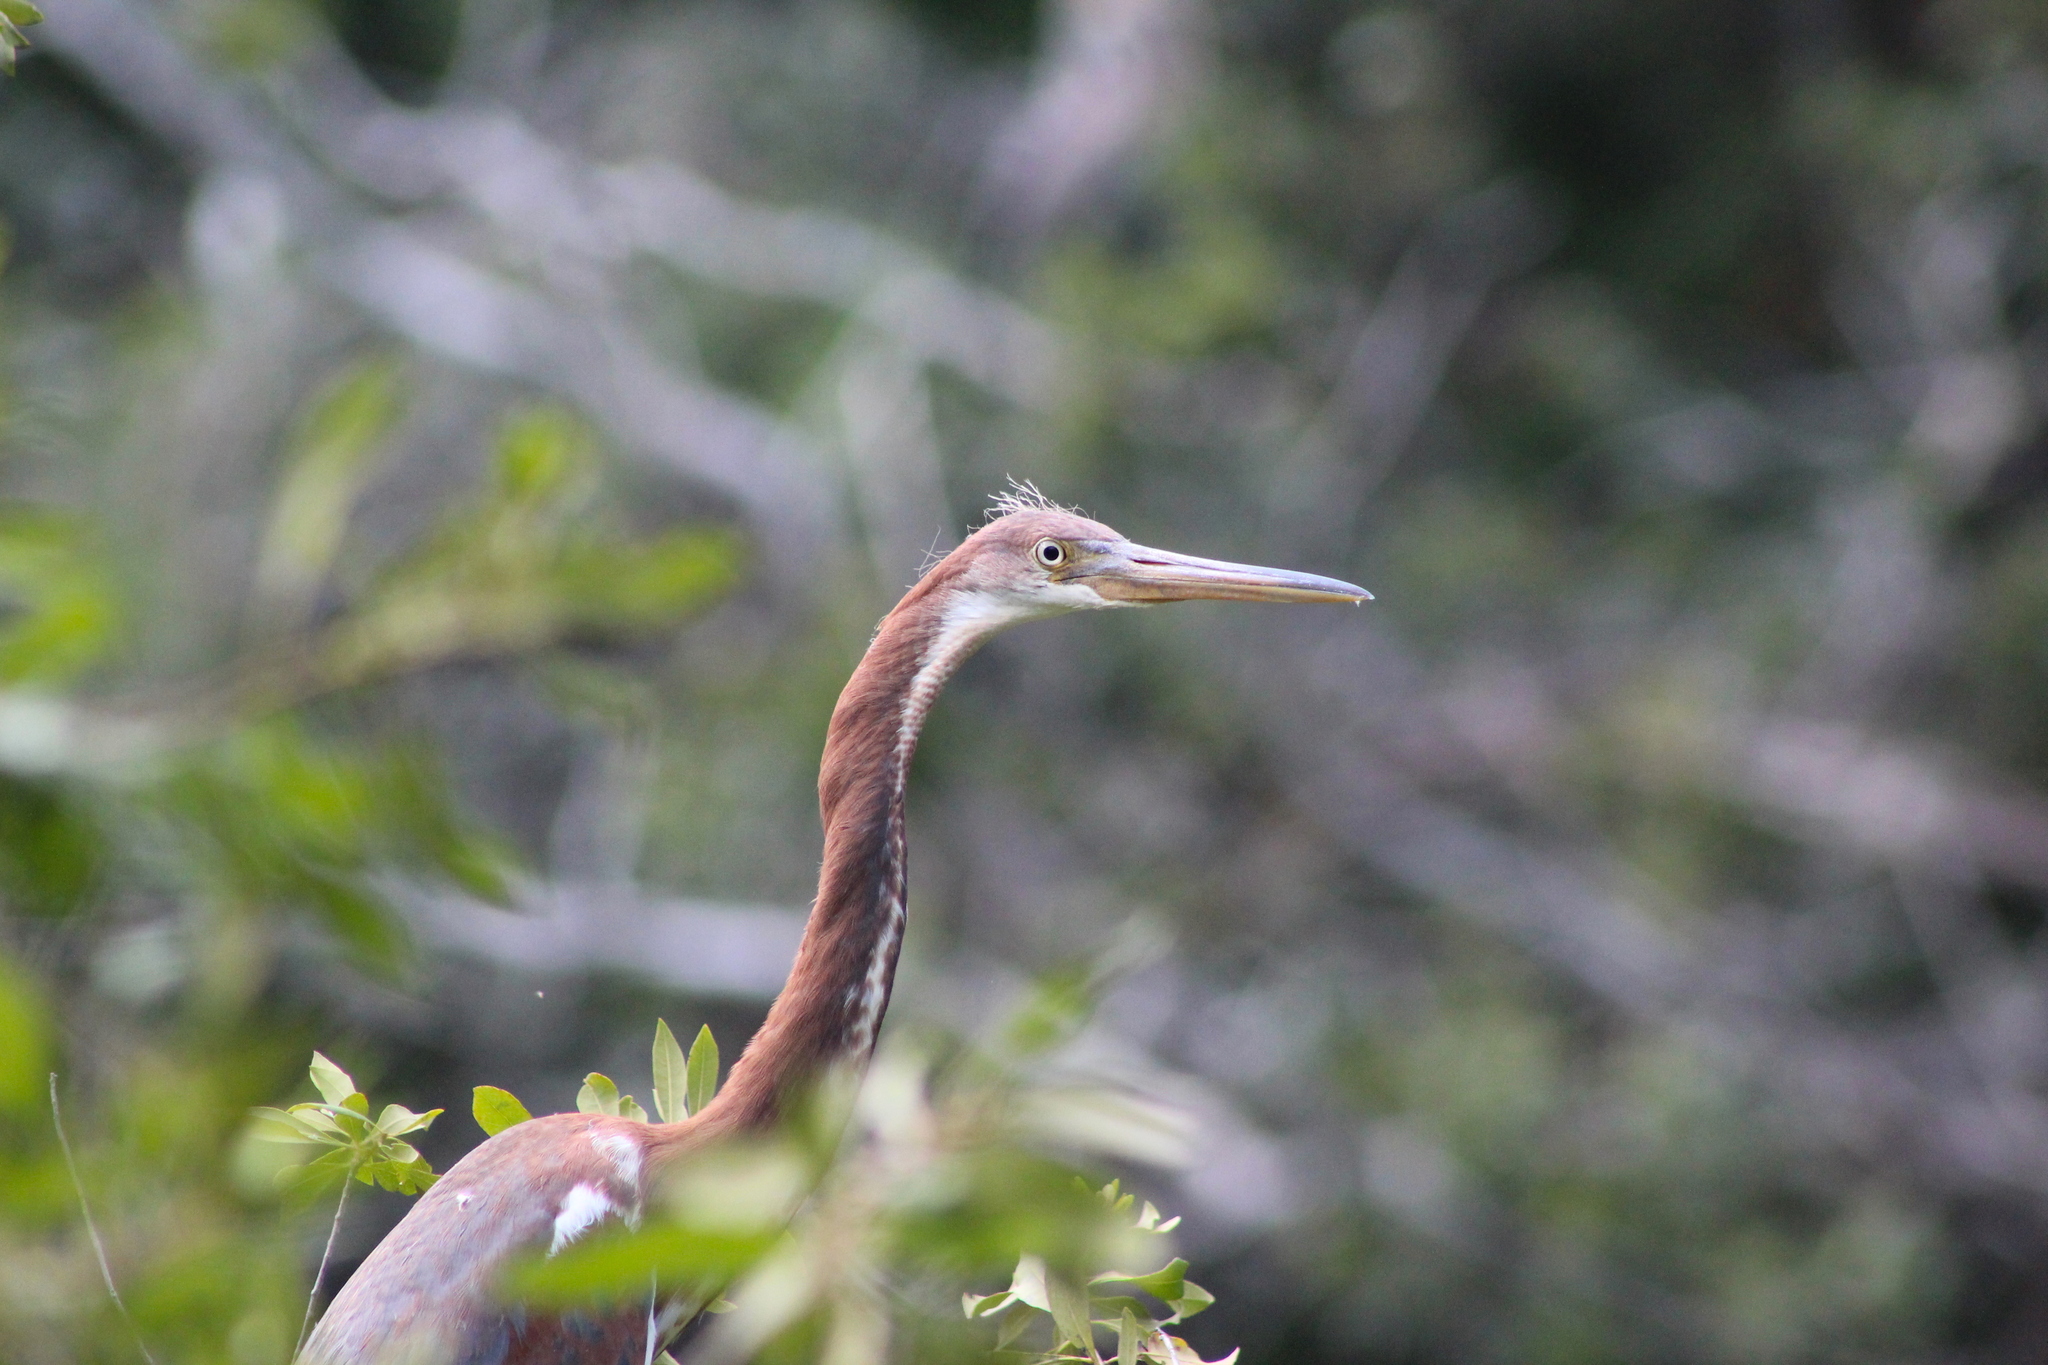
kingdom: Animalia
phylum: Chordata
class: Aves
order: Pelecaniformes
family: Ardeidae
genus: Egretta
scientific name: Egretta tricolor
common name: Tricolored heron
